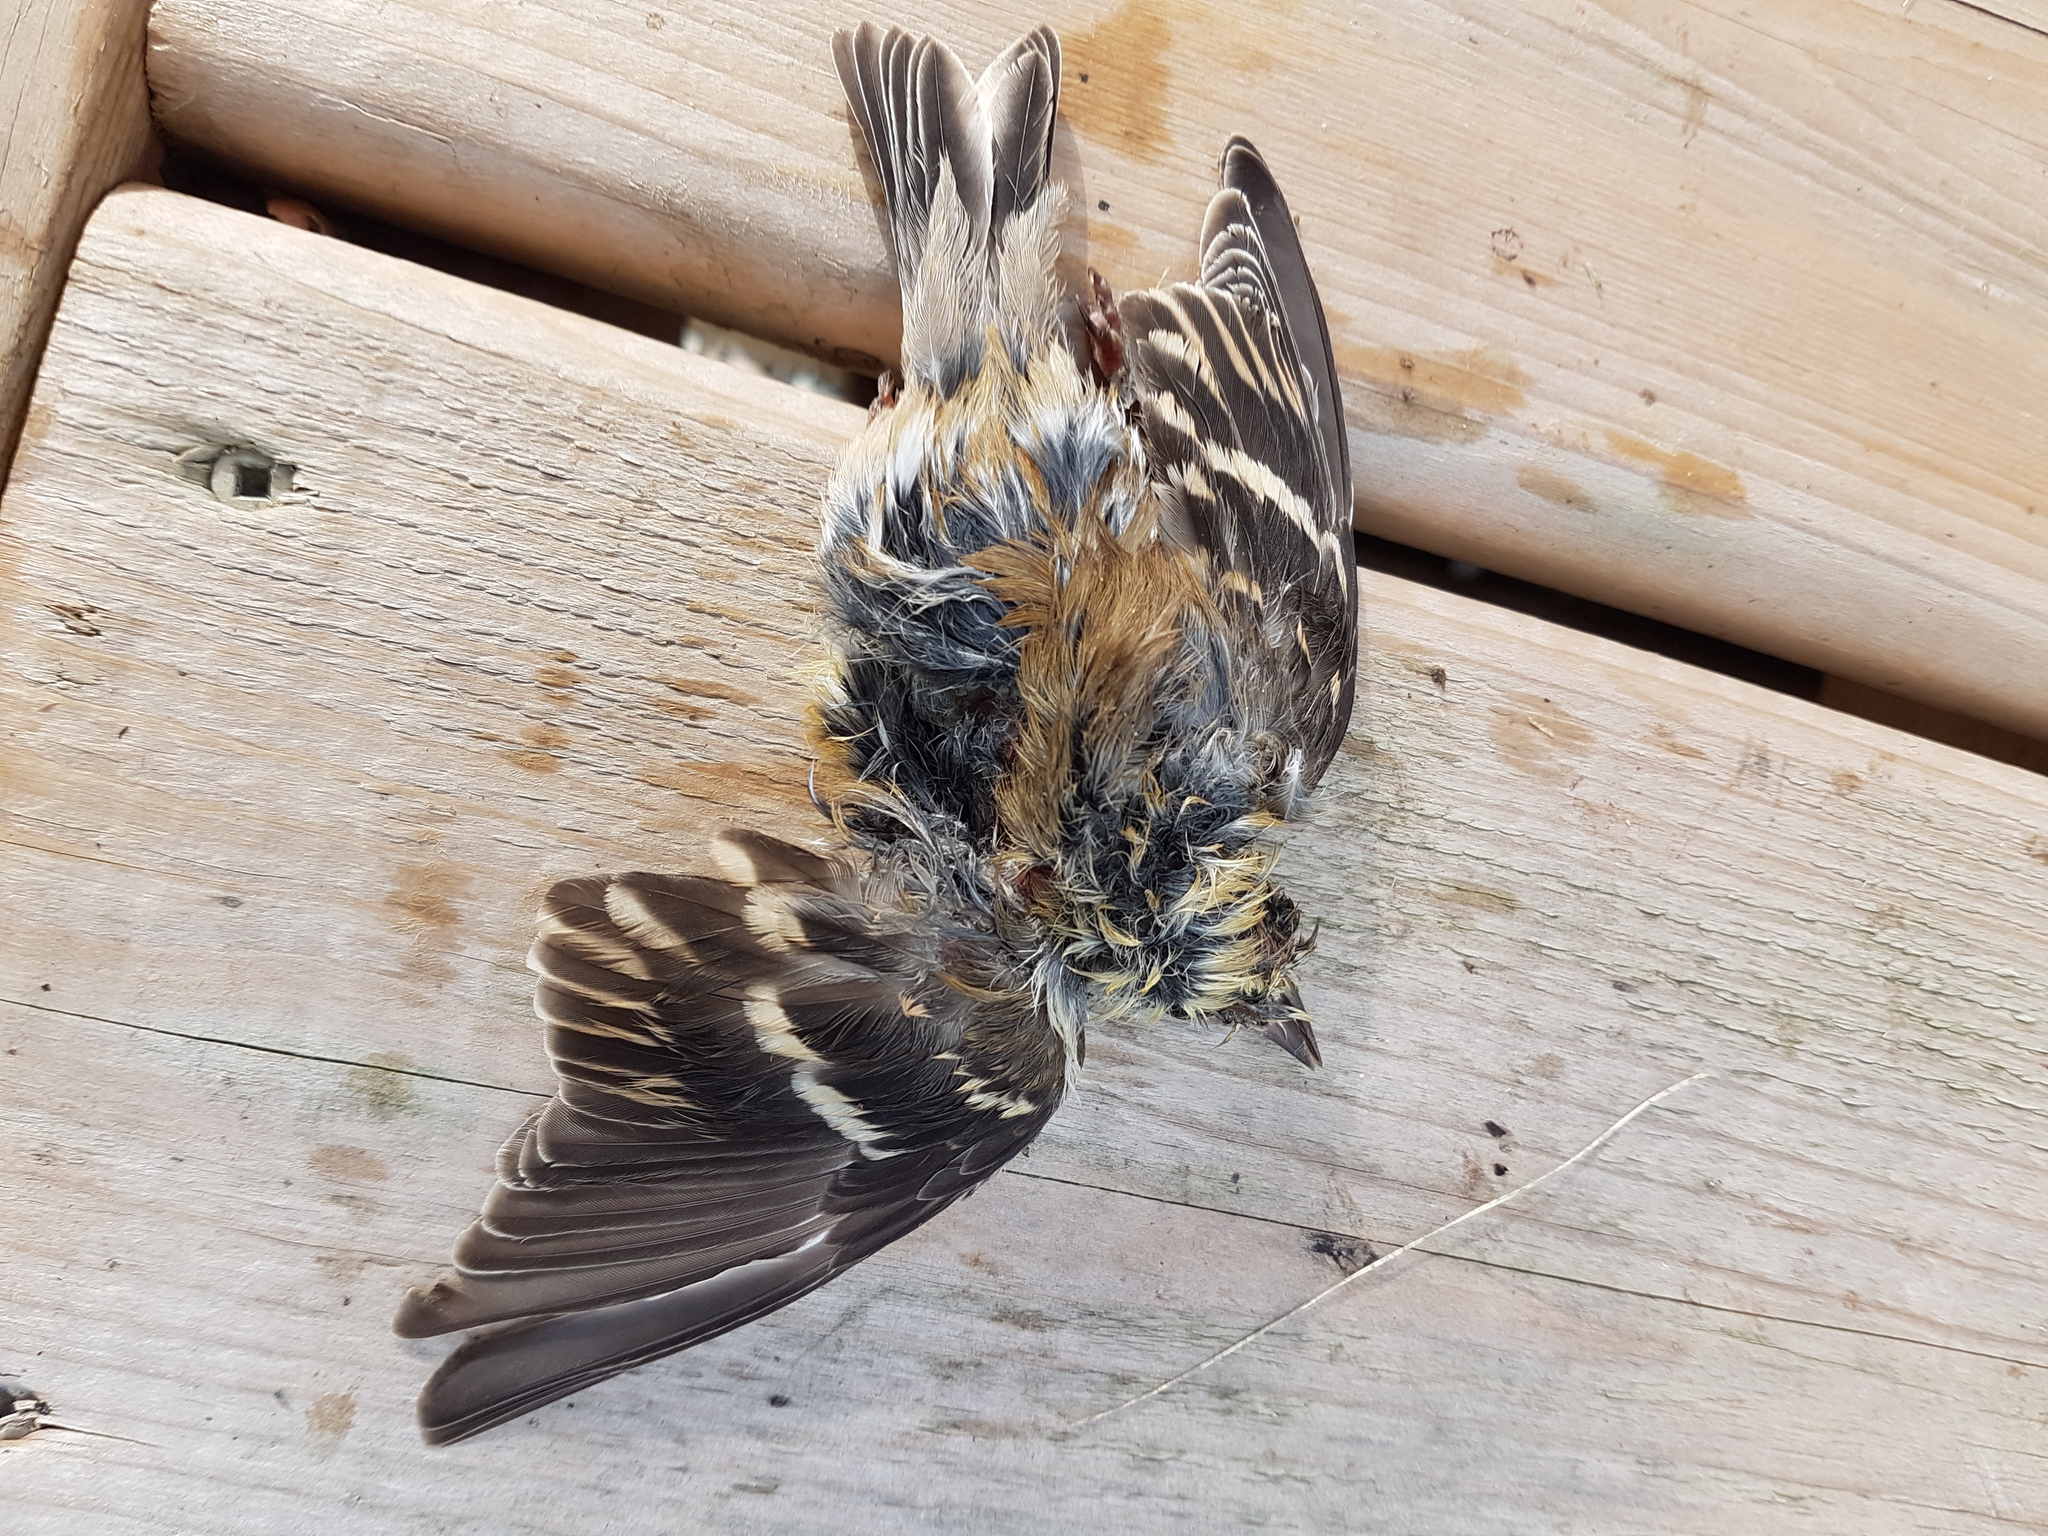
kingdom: Animalia
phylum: Chordata
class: Aves
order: Passeriformes
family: Fringillidae
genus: Spinus
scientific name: Spinus tristis
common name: American goldfinch
